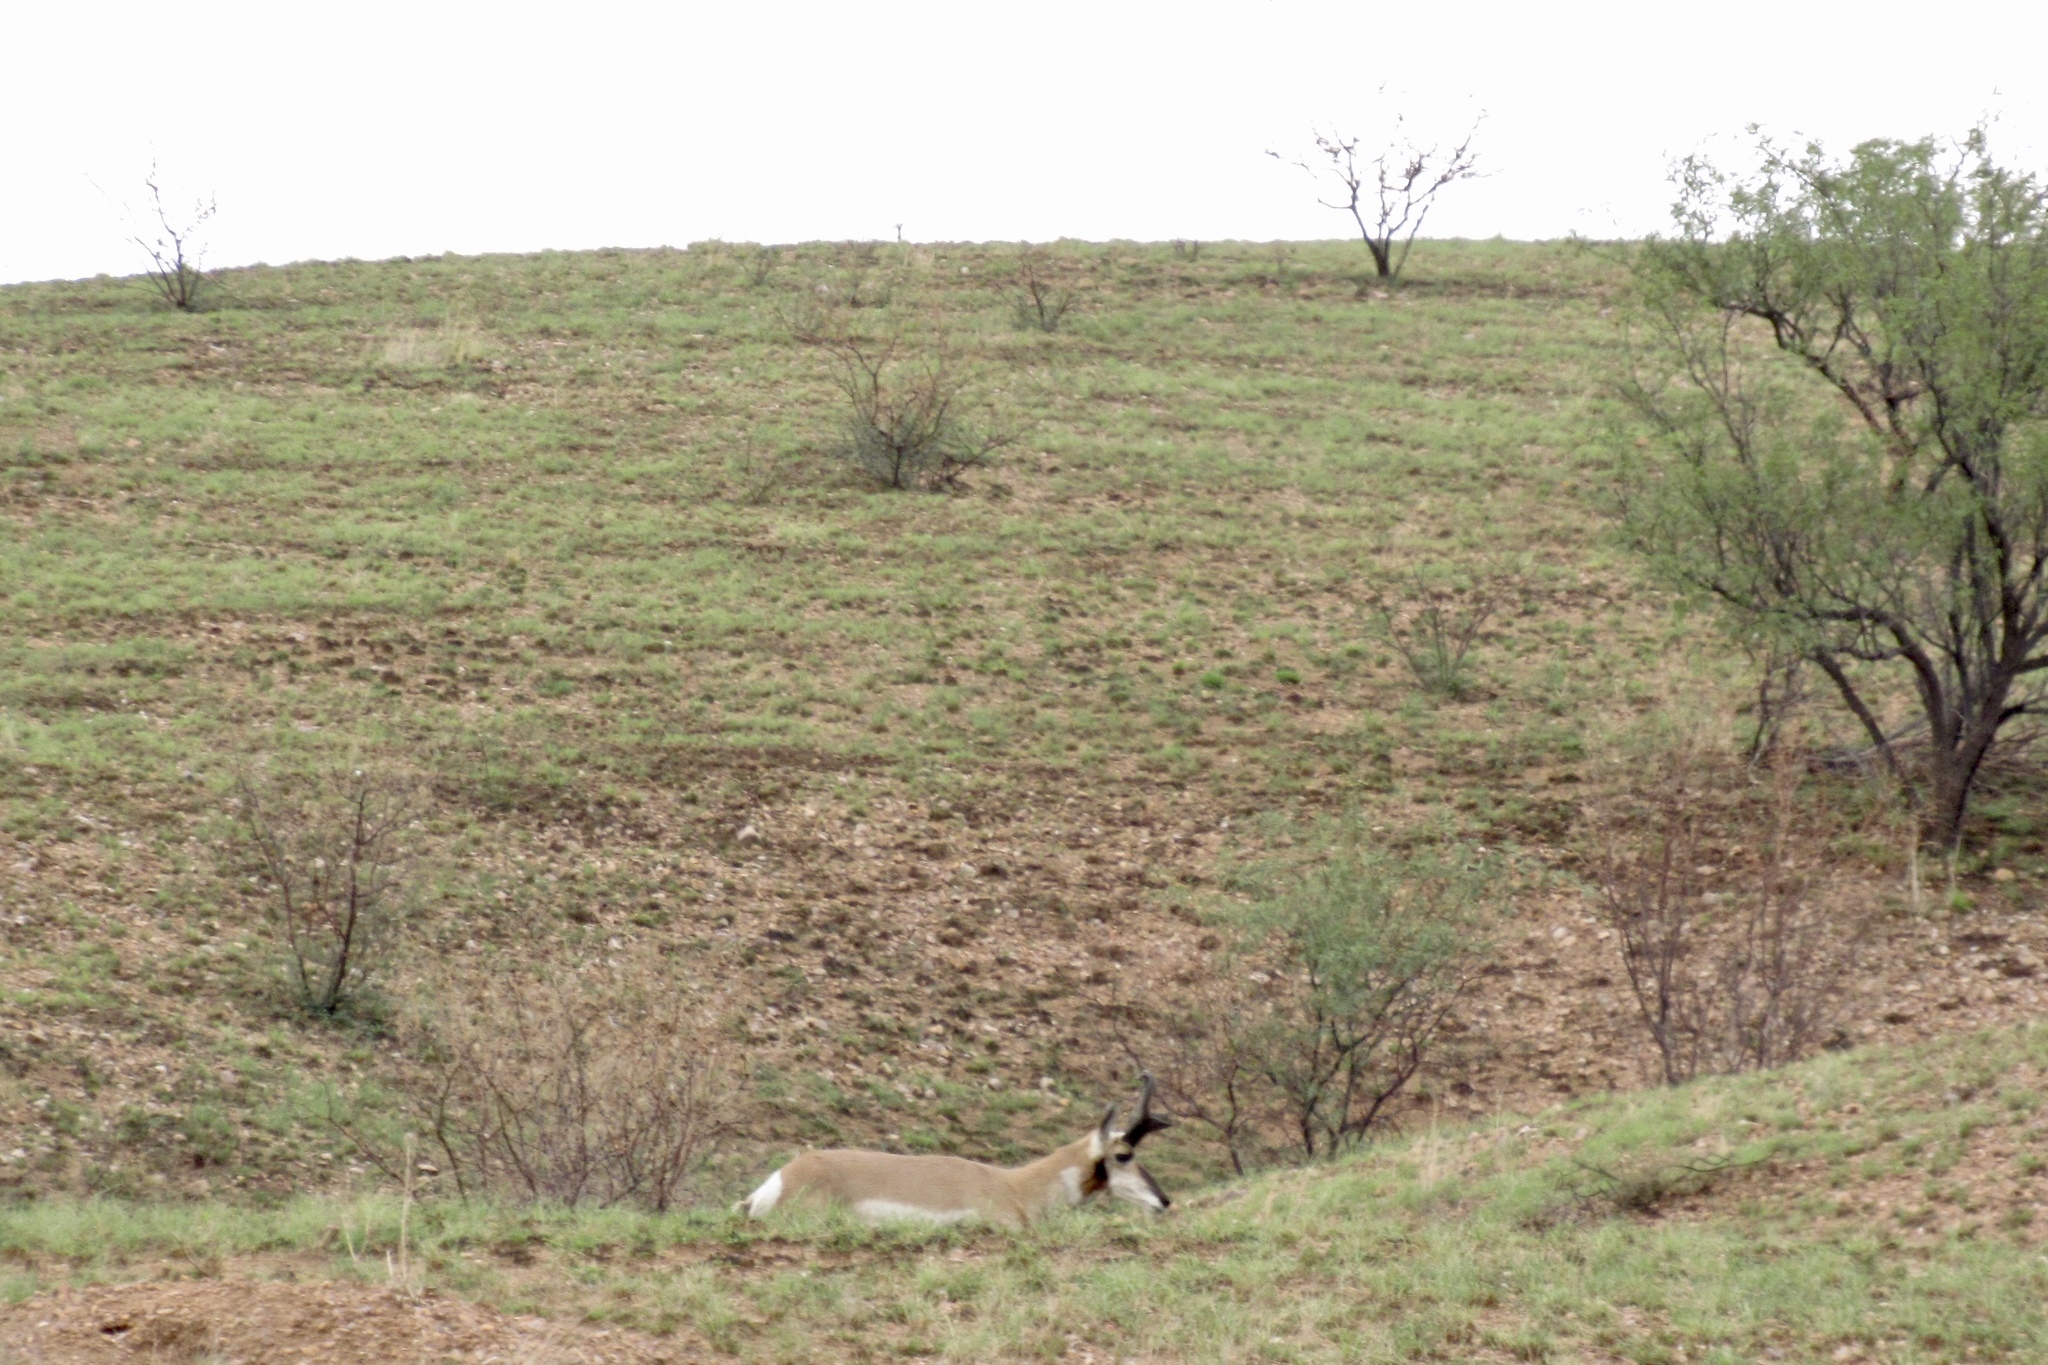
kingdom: Animalia
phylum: Chordata
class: Mammalia
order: Artiodactyla
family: Antilocapridae
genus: Antilocapra
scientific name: Antilocapra americana
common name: Pronghorn
